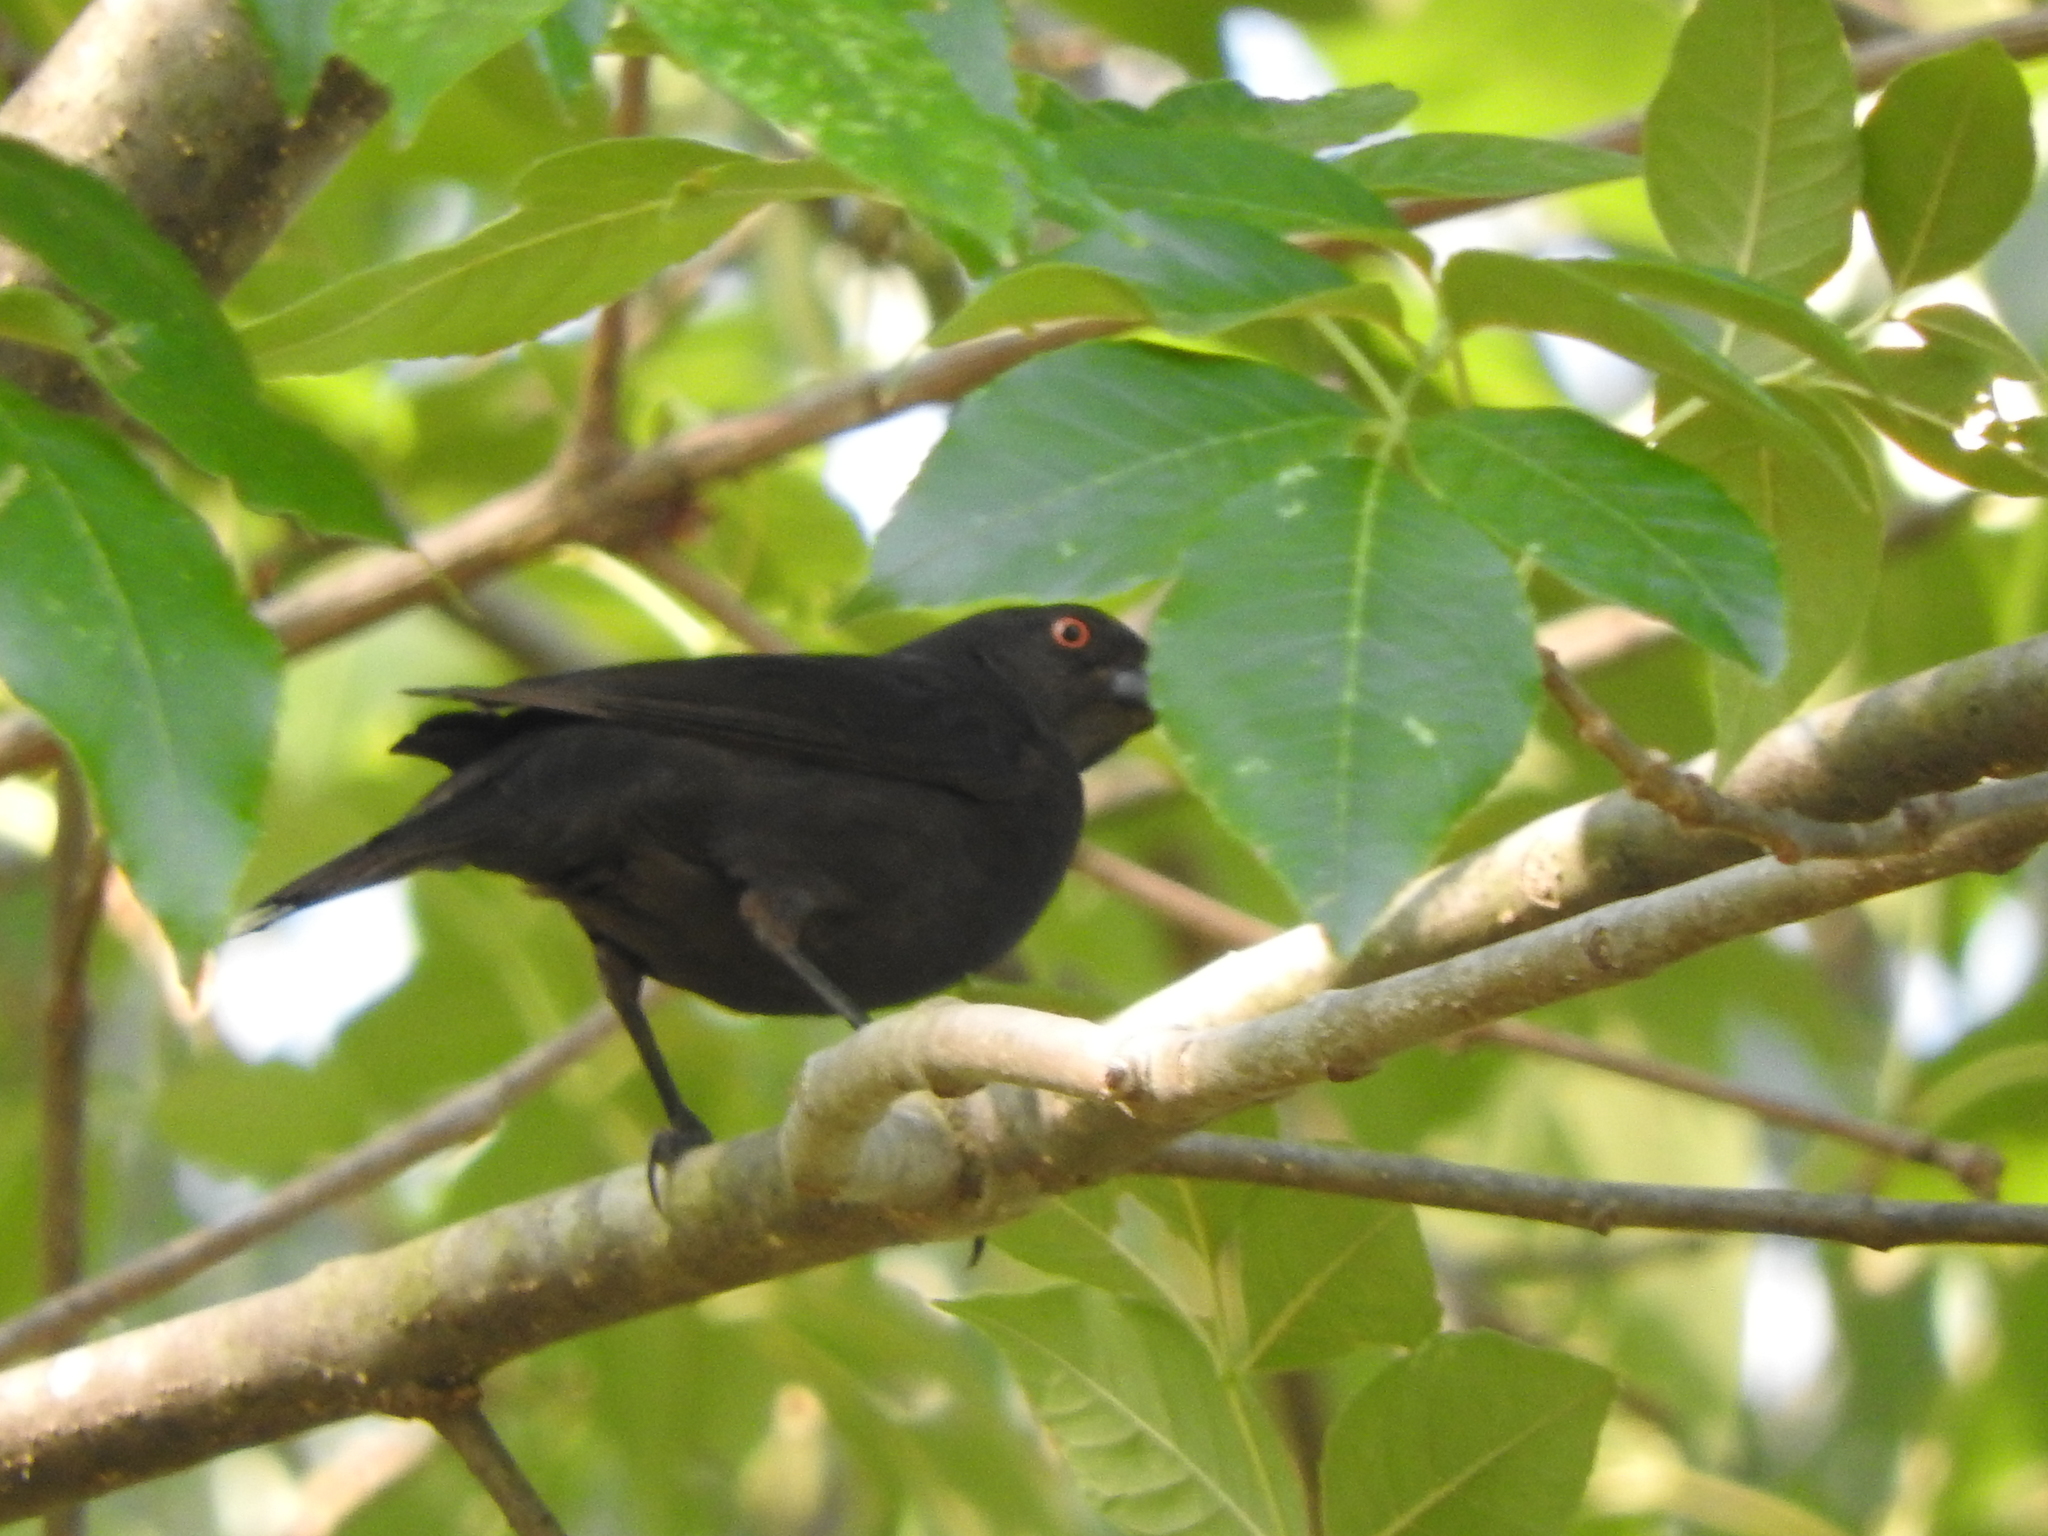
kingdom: Animalia
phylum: Chordata
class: Aves
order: Passeriformes
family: Icteridae
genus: Molothrus
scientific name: Molothrus aeneus
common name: Bronzed cowbird
